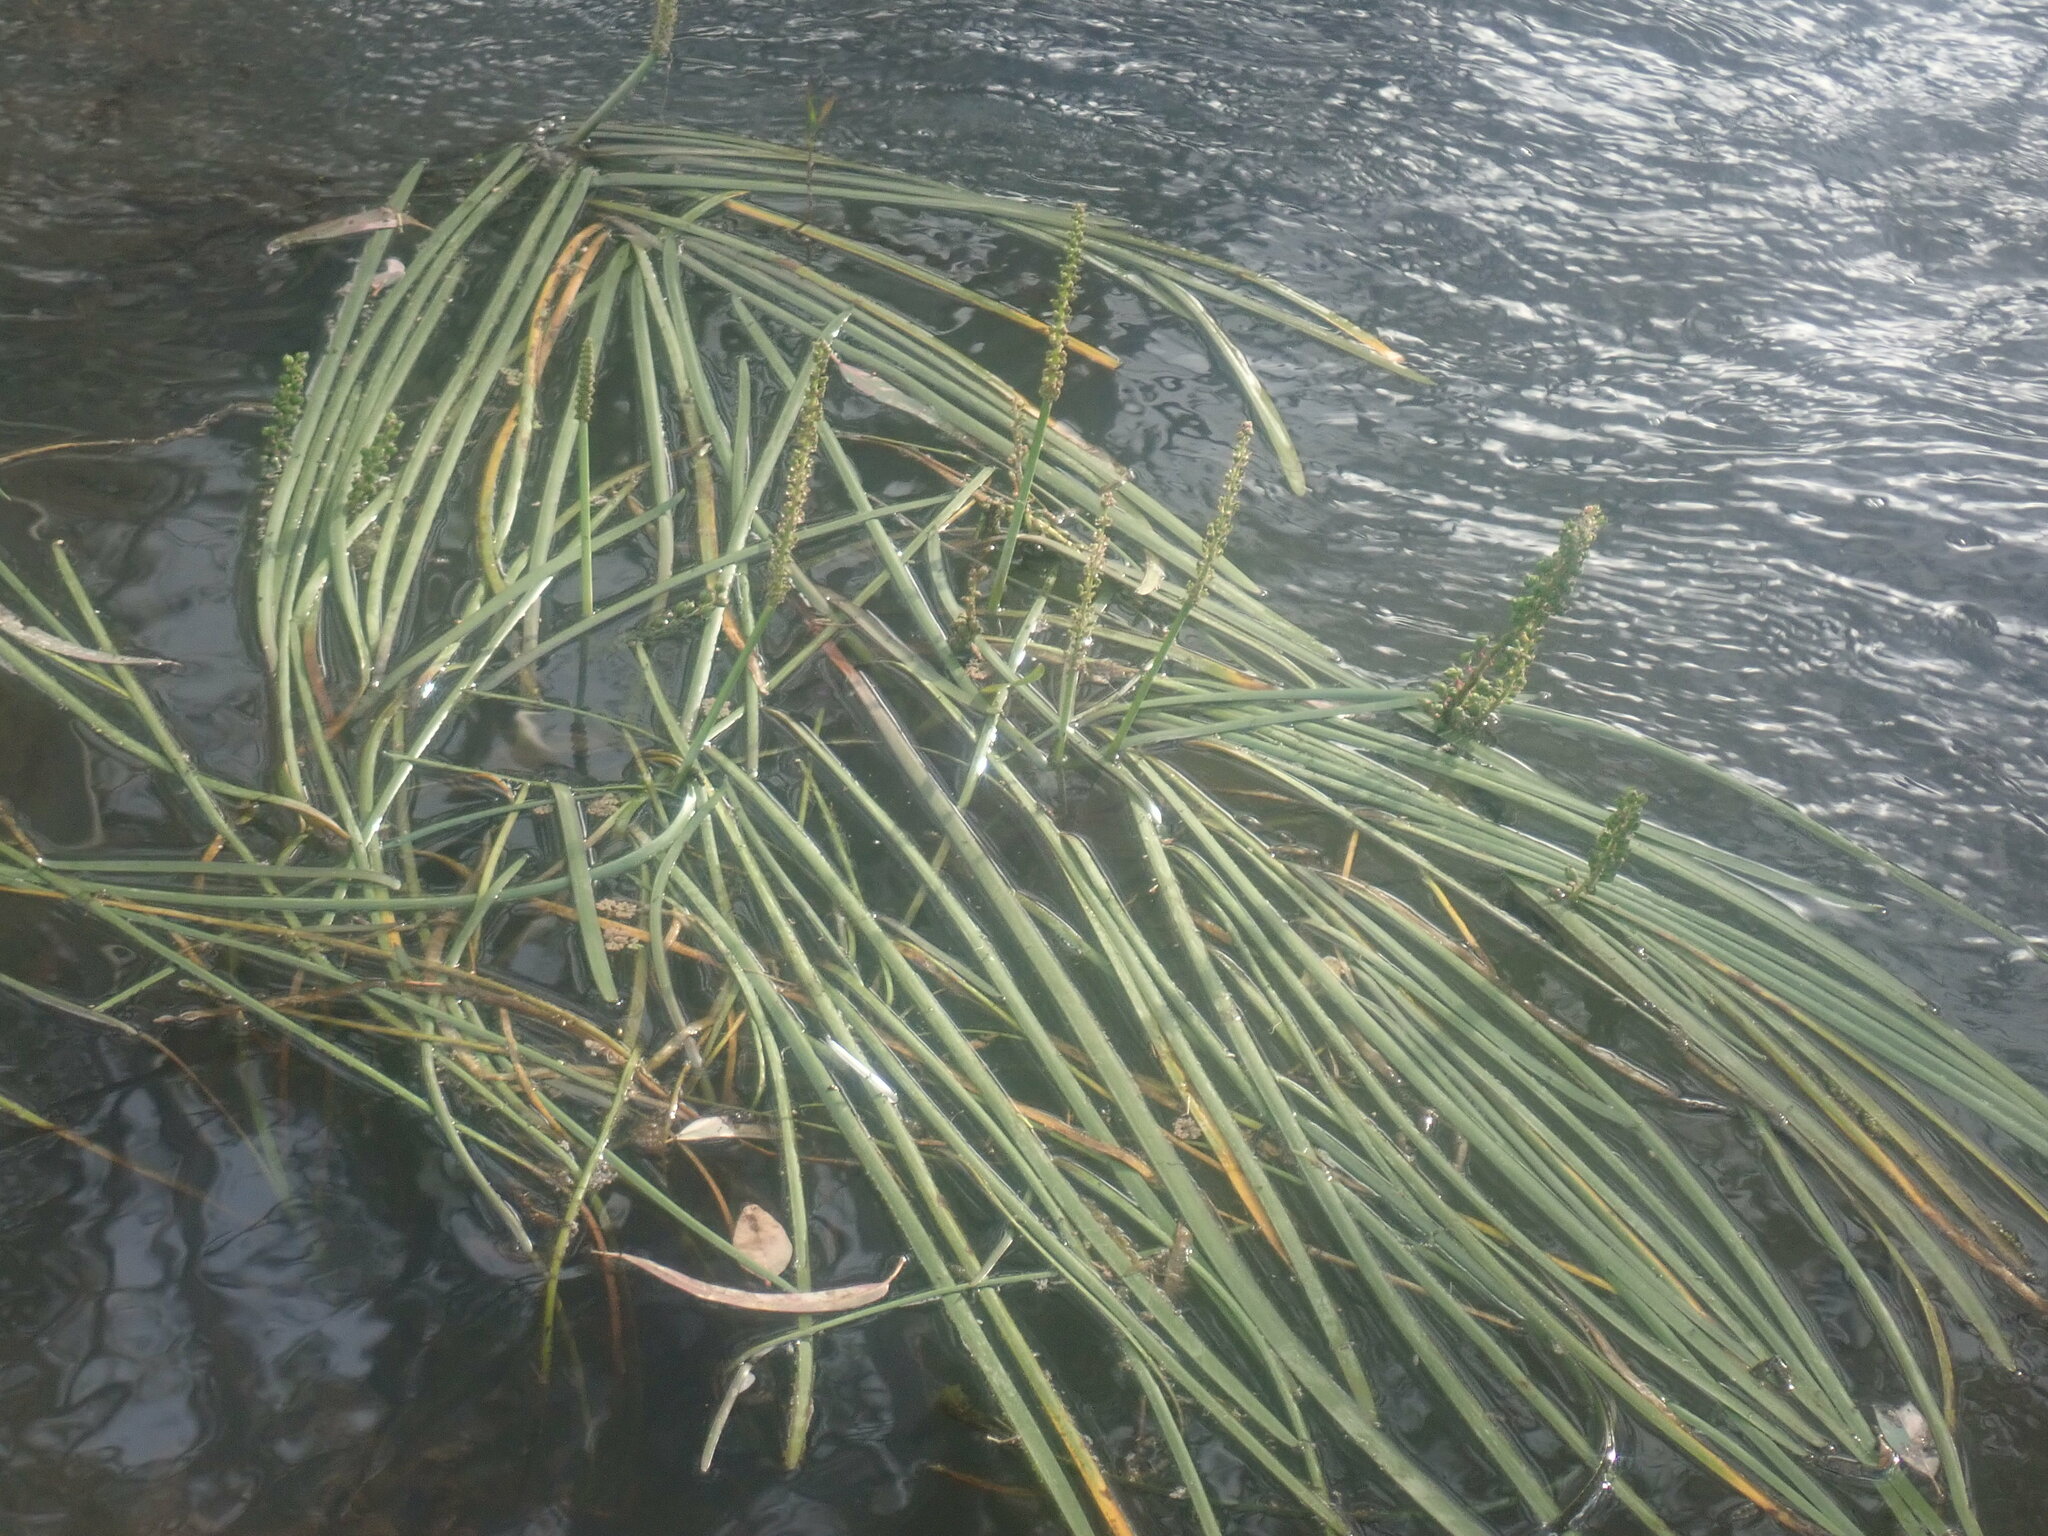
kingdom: Plantae
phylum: Tracheophyta
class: Liliopsida
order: Alismatales
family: Juncaginaceae
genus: Cycnogeton
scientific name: Cycnogeton procerum
